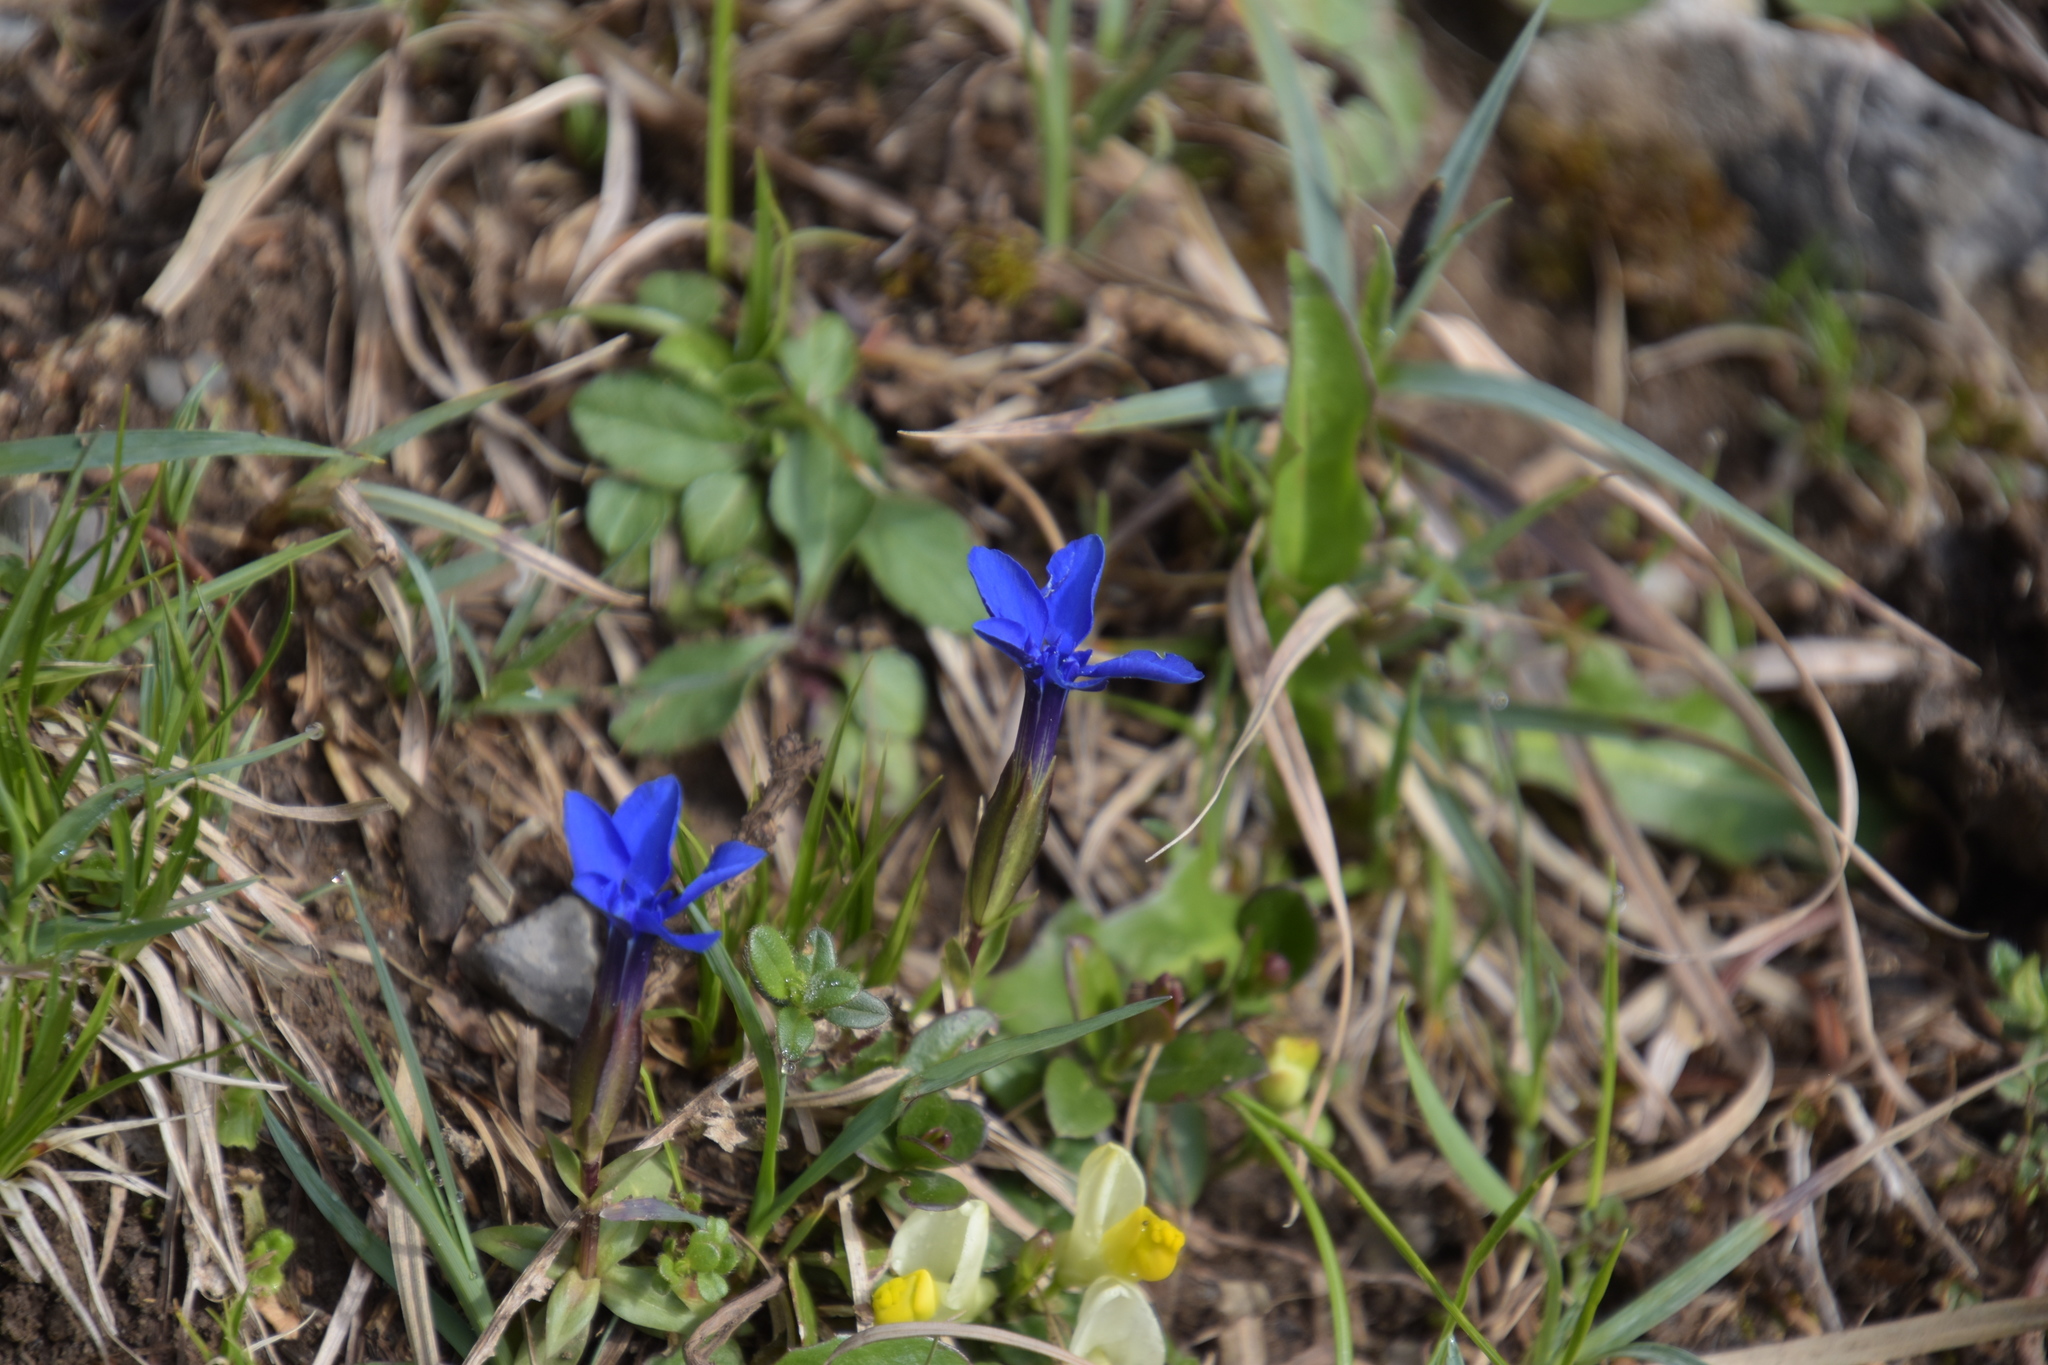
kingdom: Plantae
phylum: Tracheophyta
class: Magnoliopsida
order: Gentianales
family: Gentianaceae
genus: Gentiana
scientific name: Gentiana verna
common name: Spring gentian
